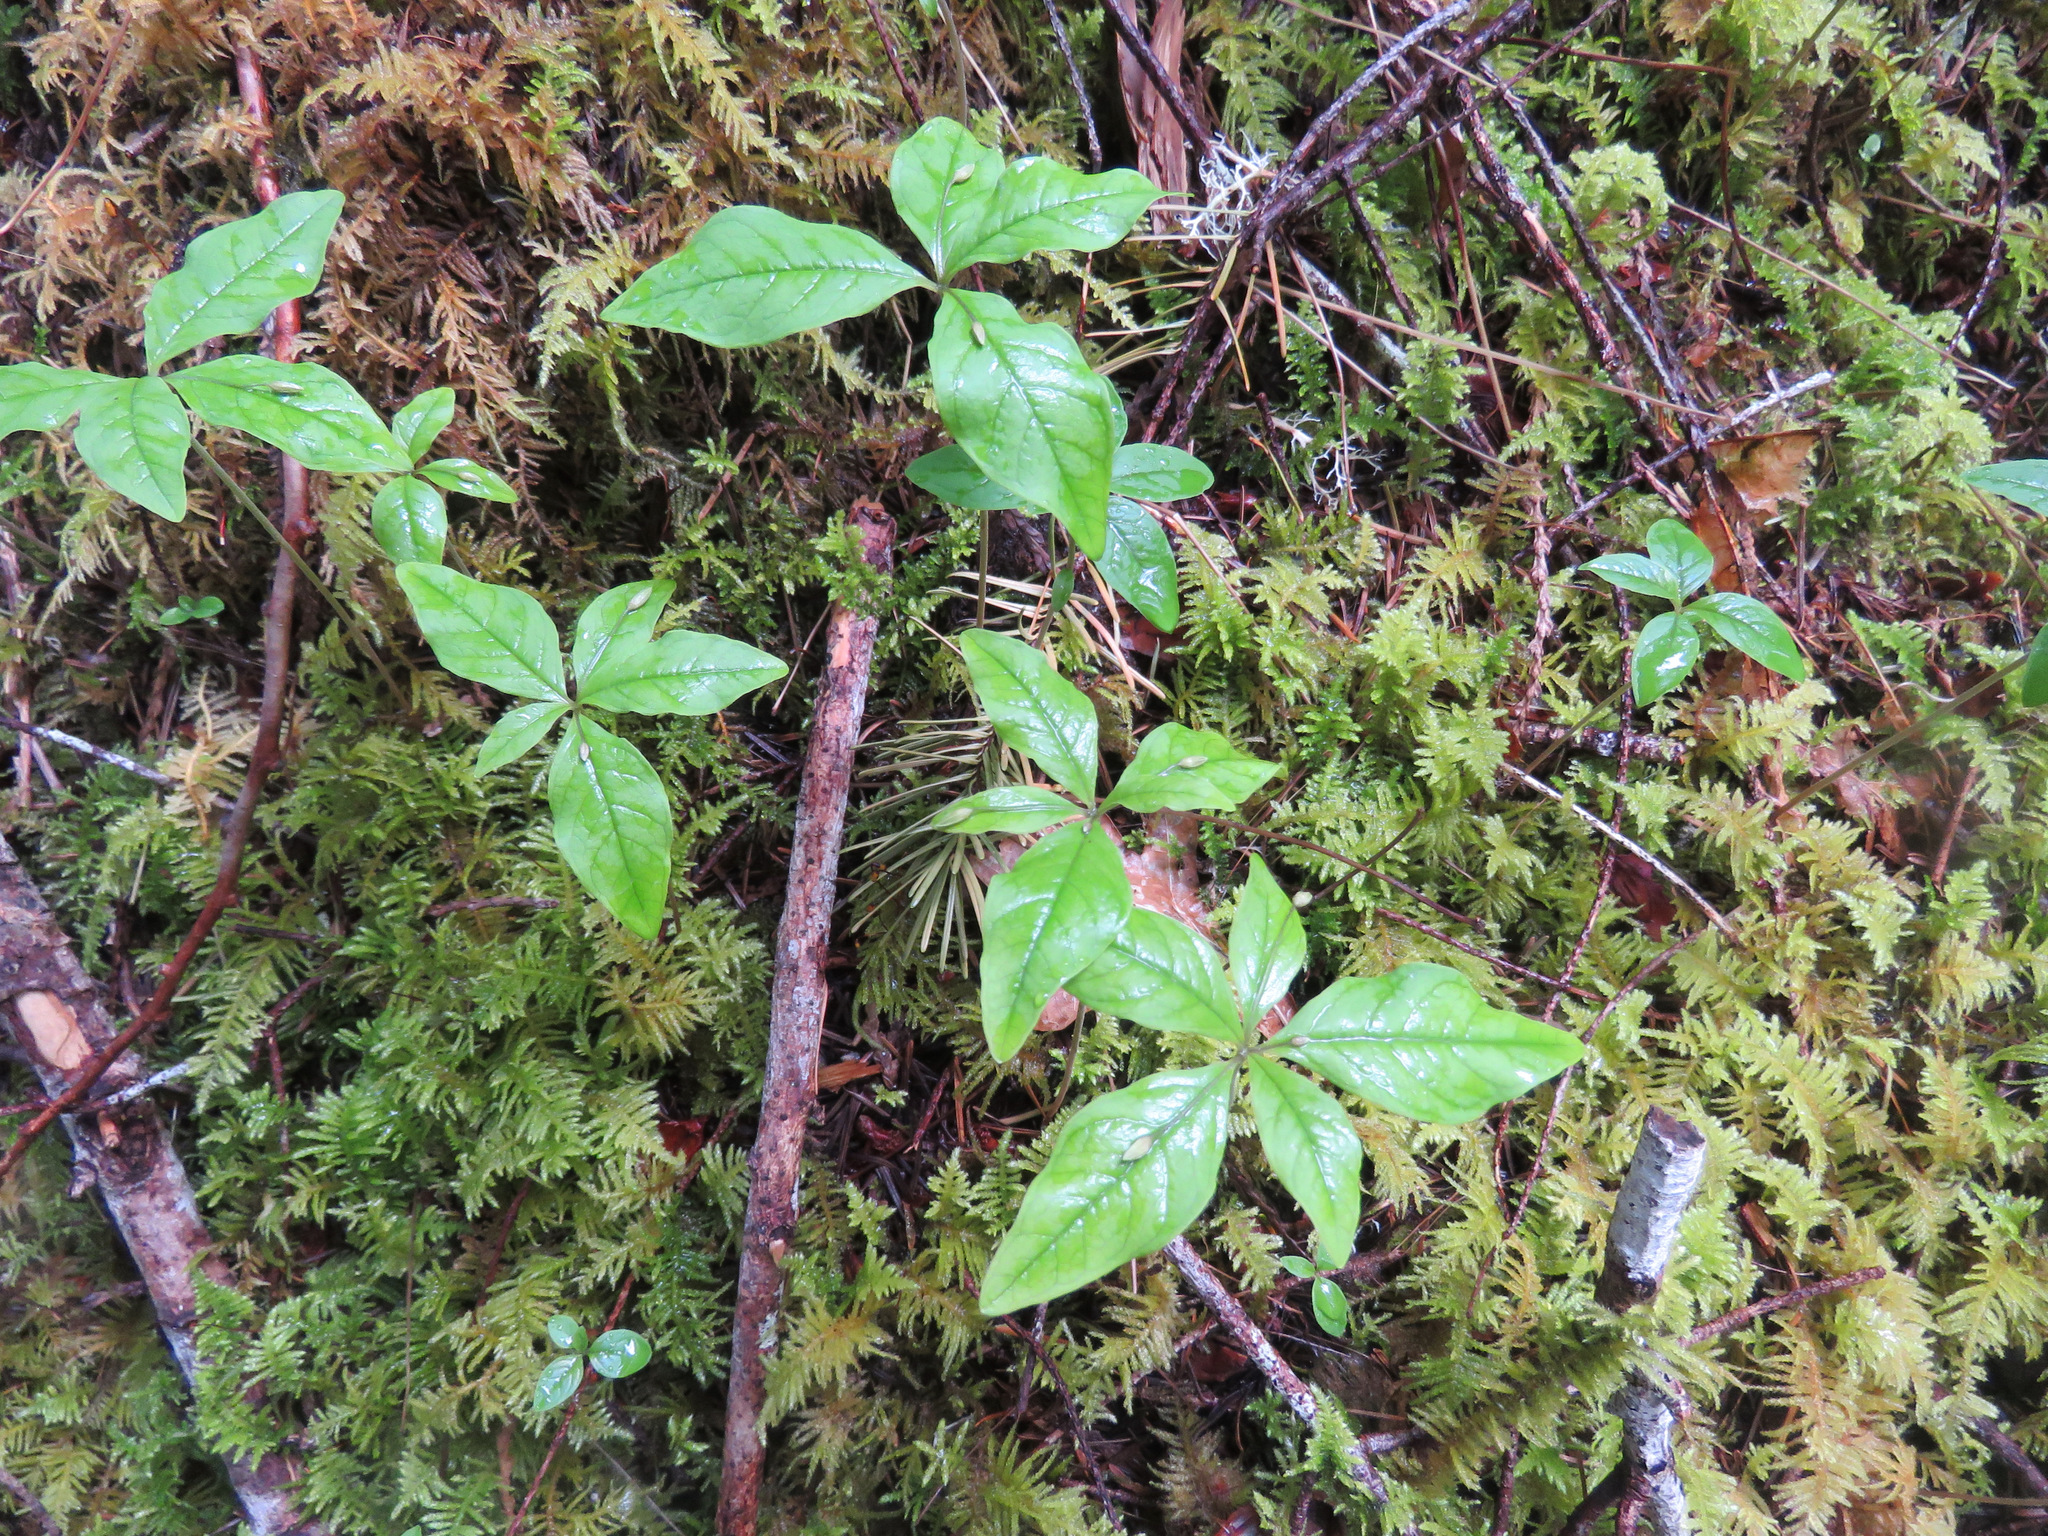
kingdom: Plantae
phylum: Tracheophyta
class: Magnoliopsida
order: Ericales
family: Primulaceae
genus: Lysimachia
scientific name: Lysimachia latifolia
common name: Pacific starflower
